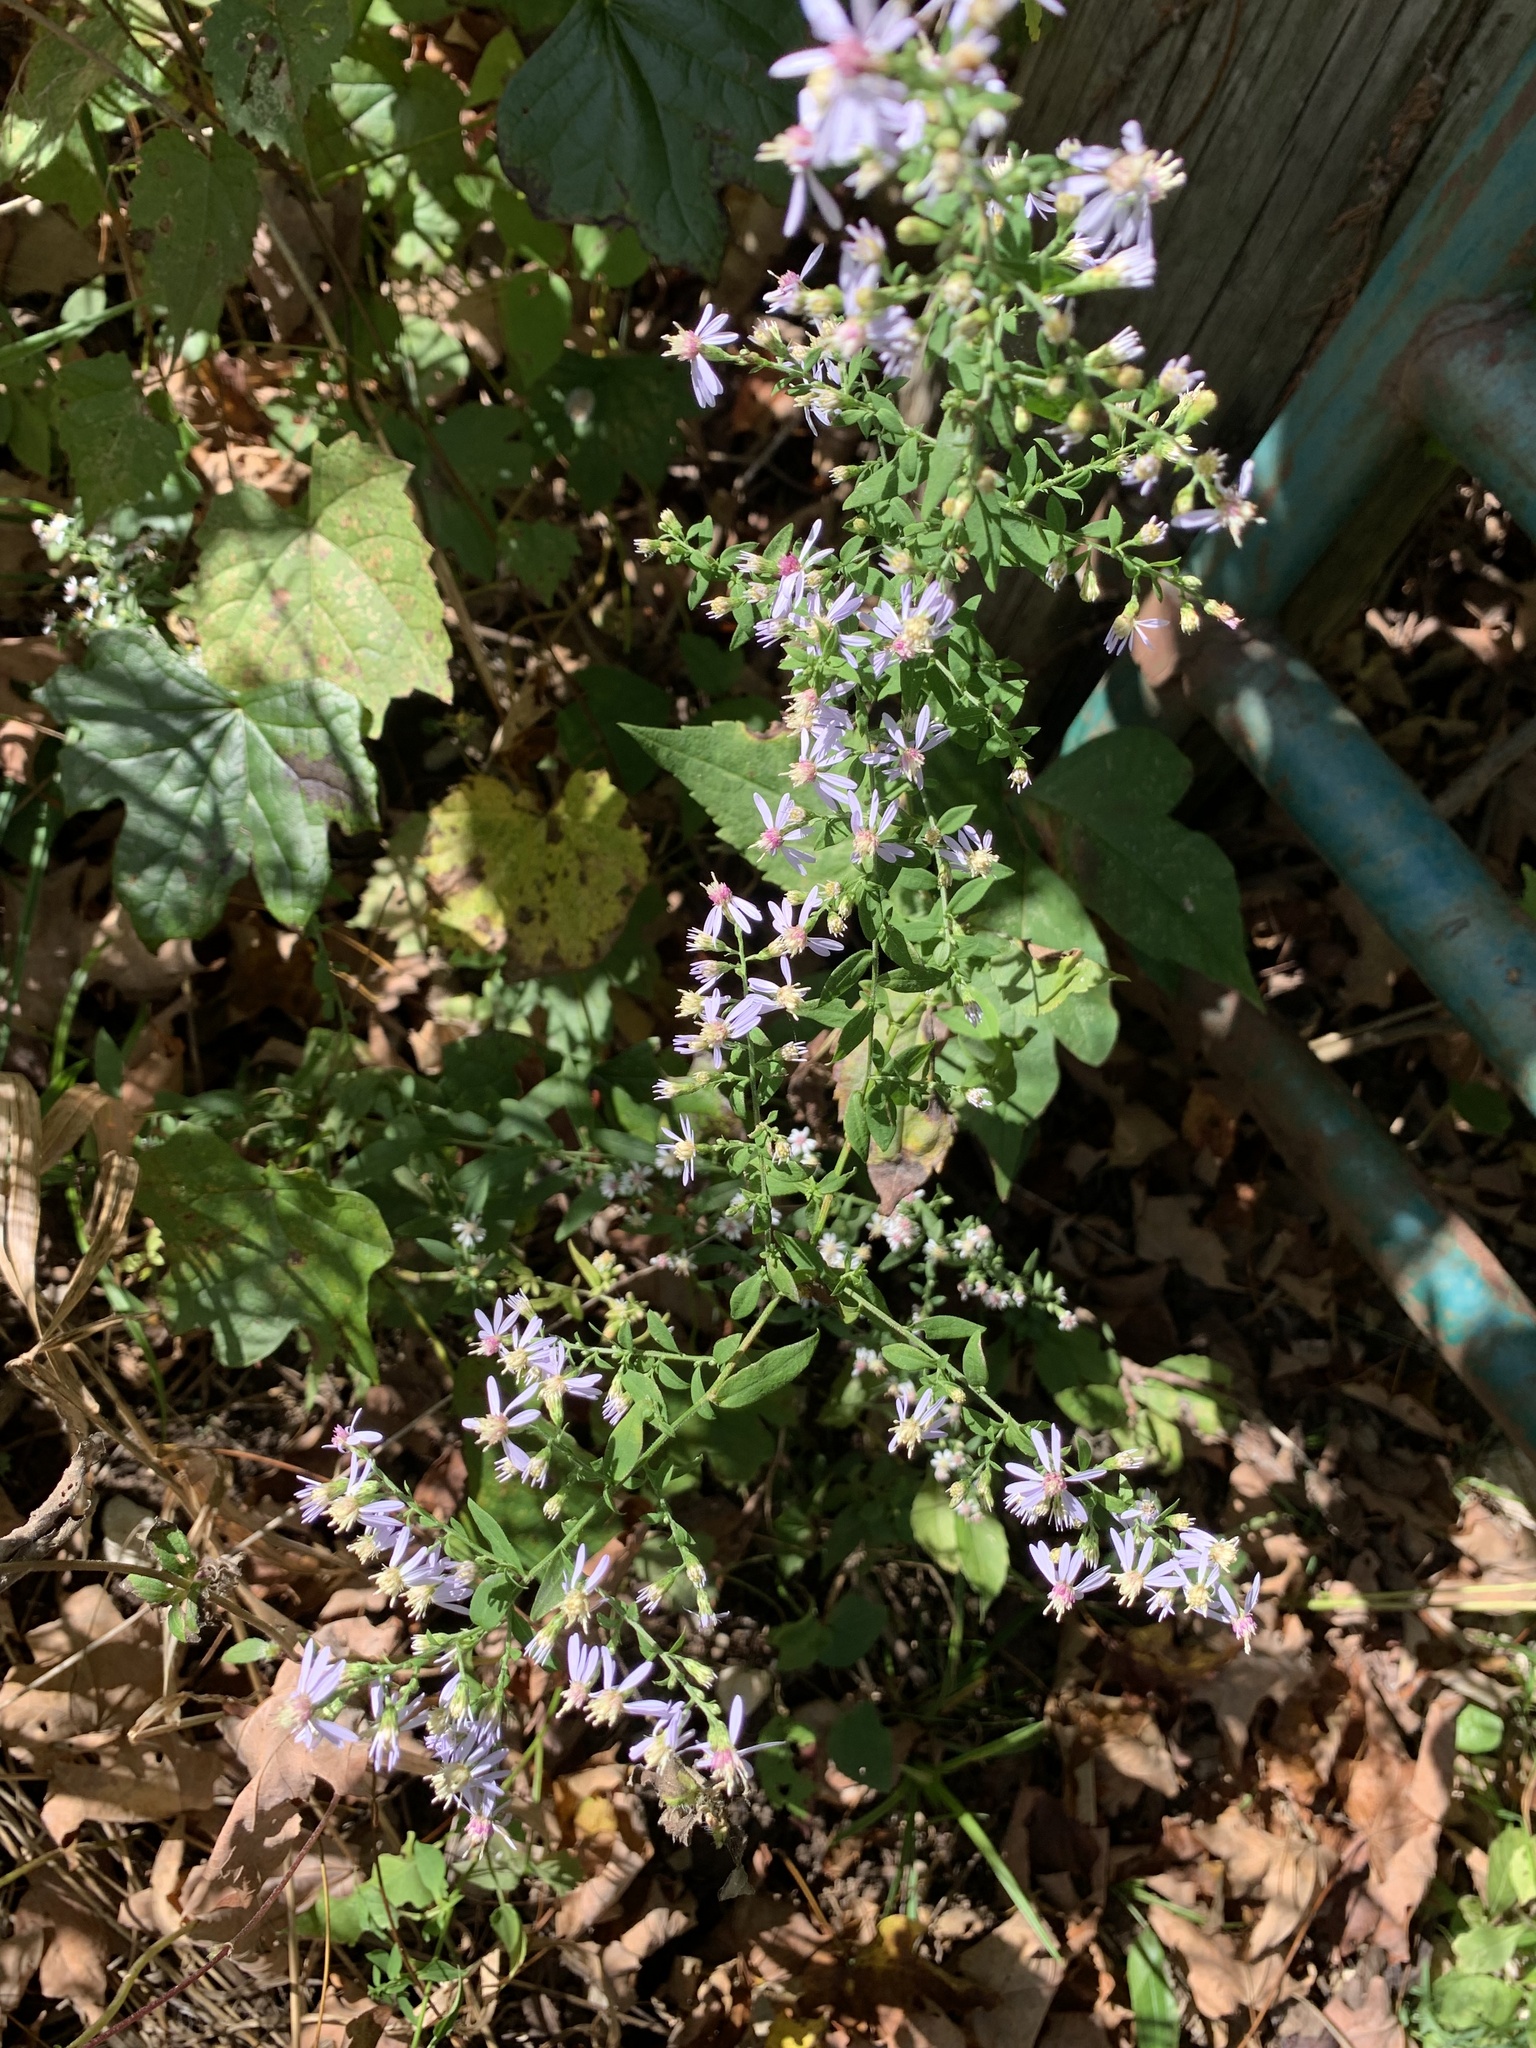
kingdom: Plantae
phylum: Tracheophyta
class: Magnoliopsida
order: Asterales
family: Asteraceae
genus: Symphyotrichum
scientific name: Symphyotrichum cordifolium
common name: Beeweed
